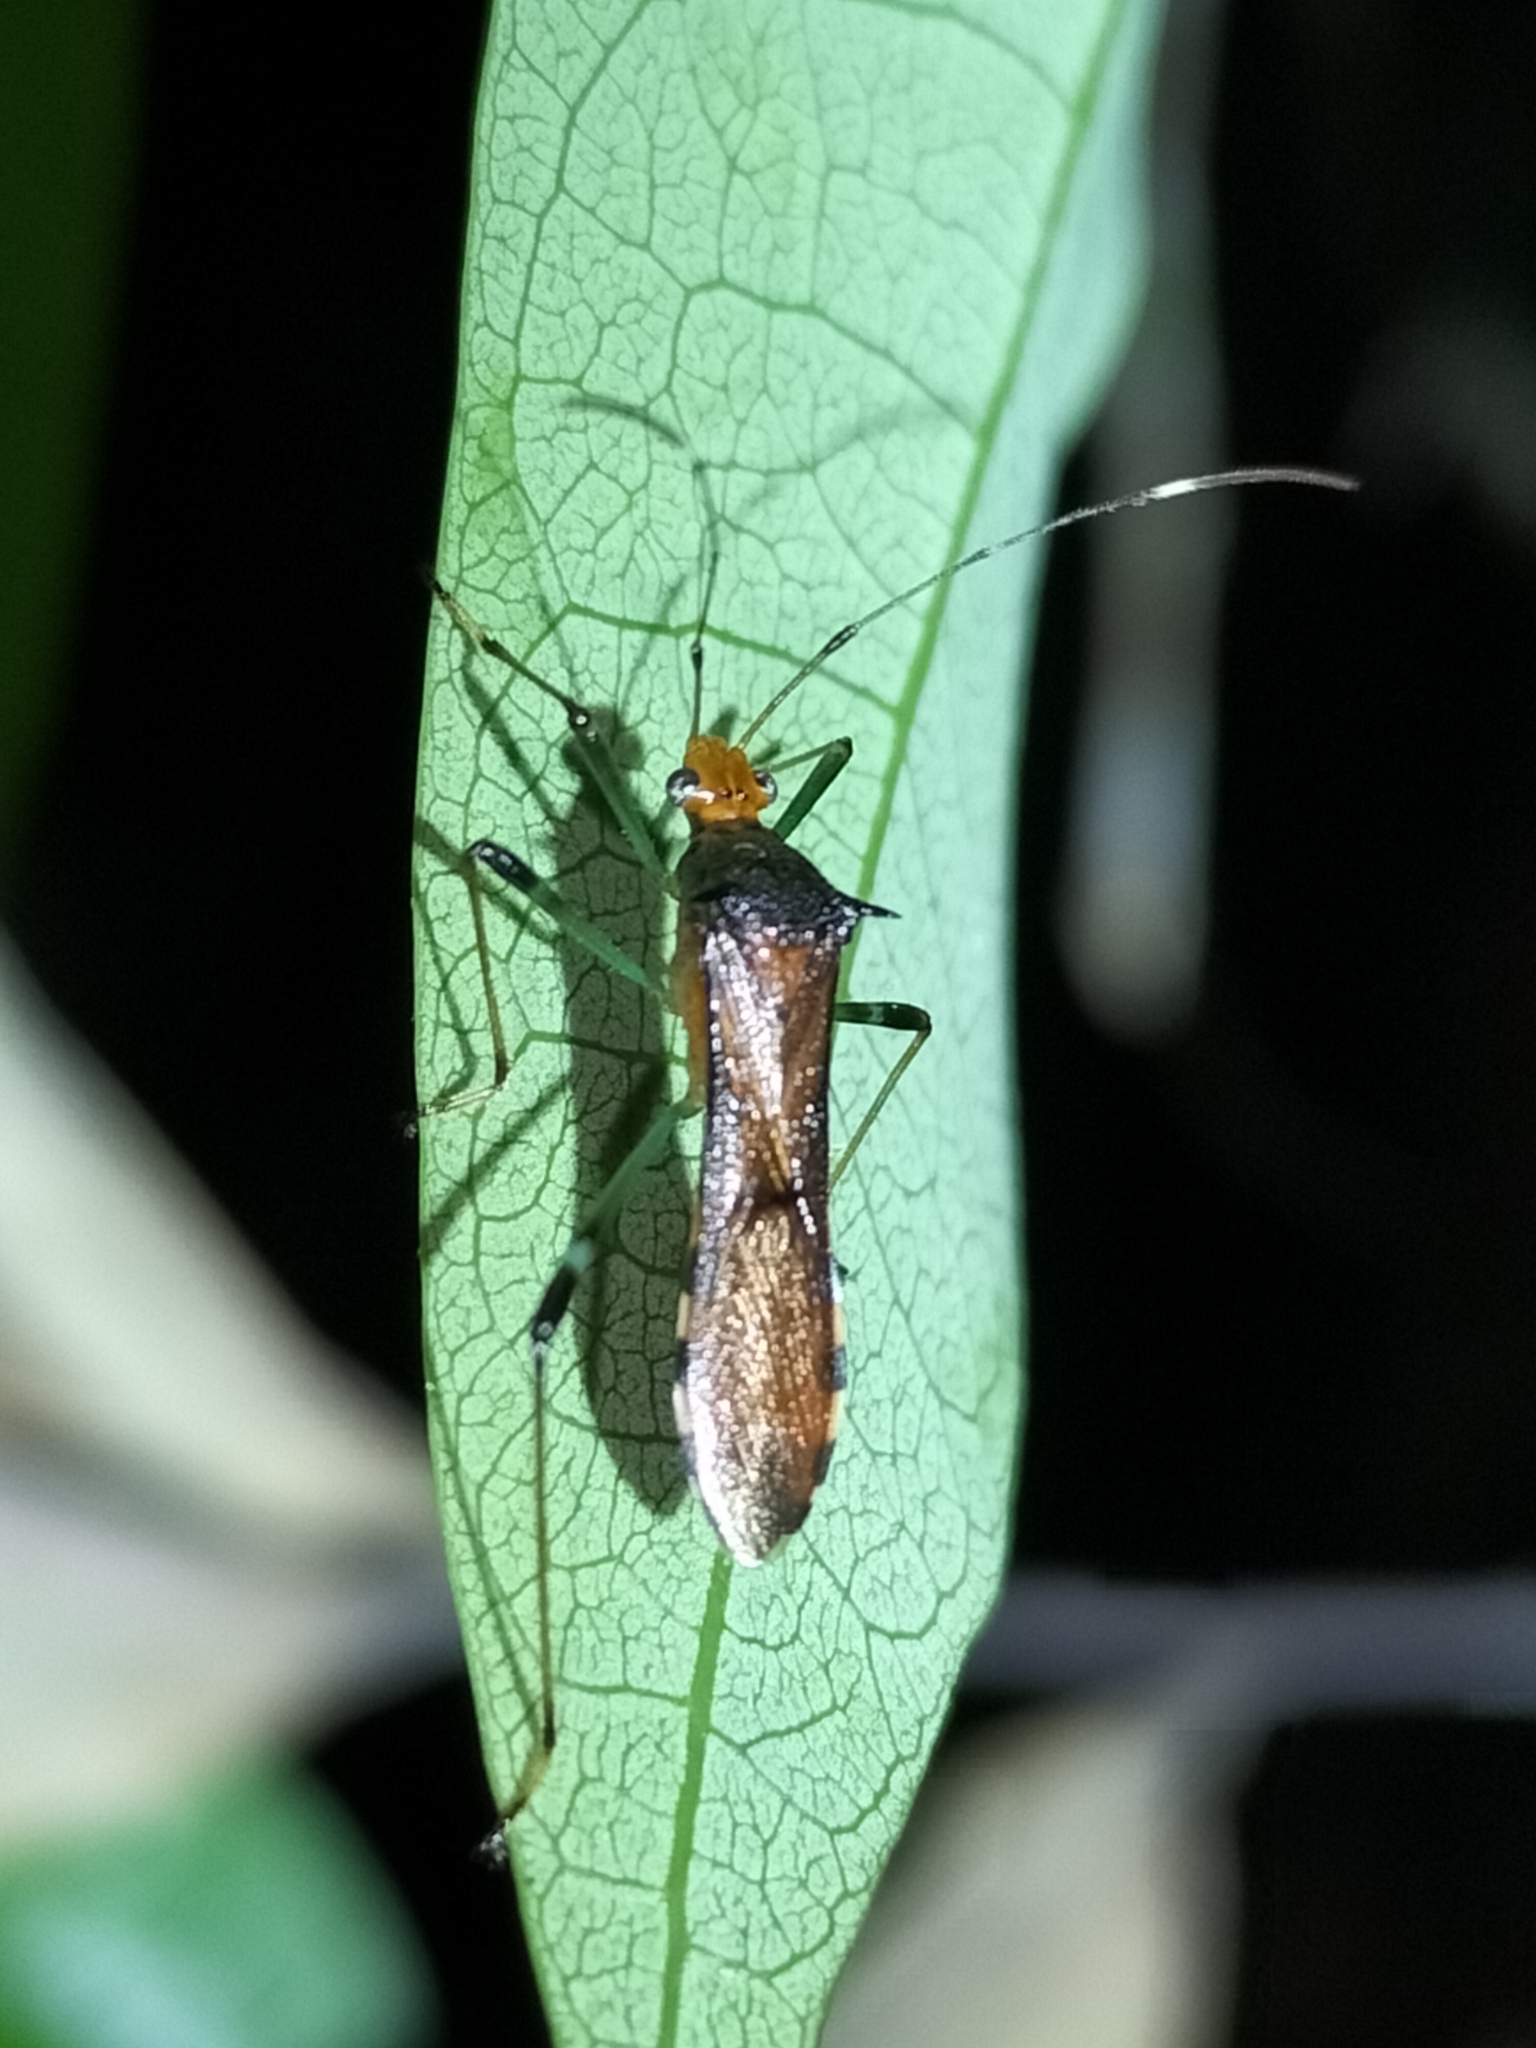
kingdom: Animalia
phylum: Arthropoda
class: Insecta
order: Hemiptera
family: Alydidae
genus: Noliphus
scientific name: Noliphus erythrocephalus
